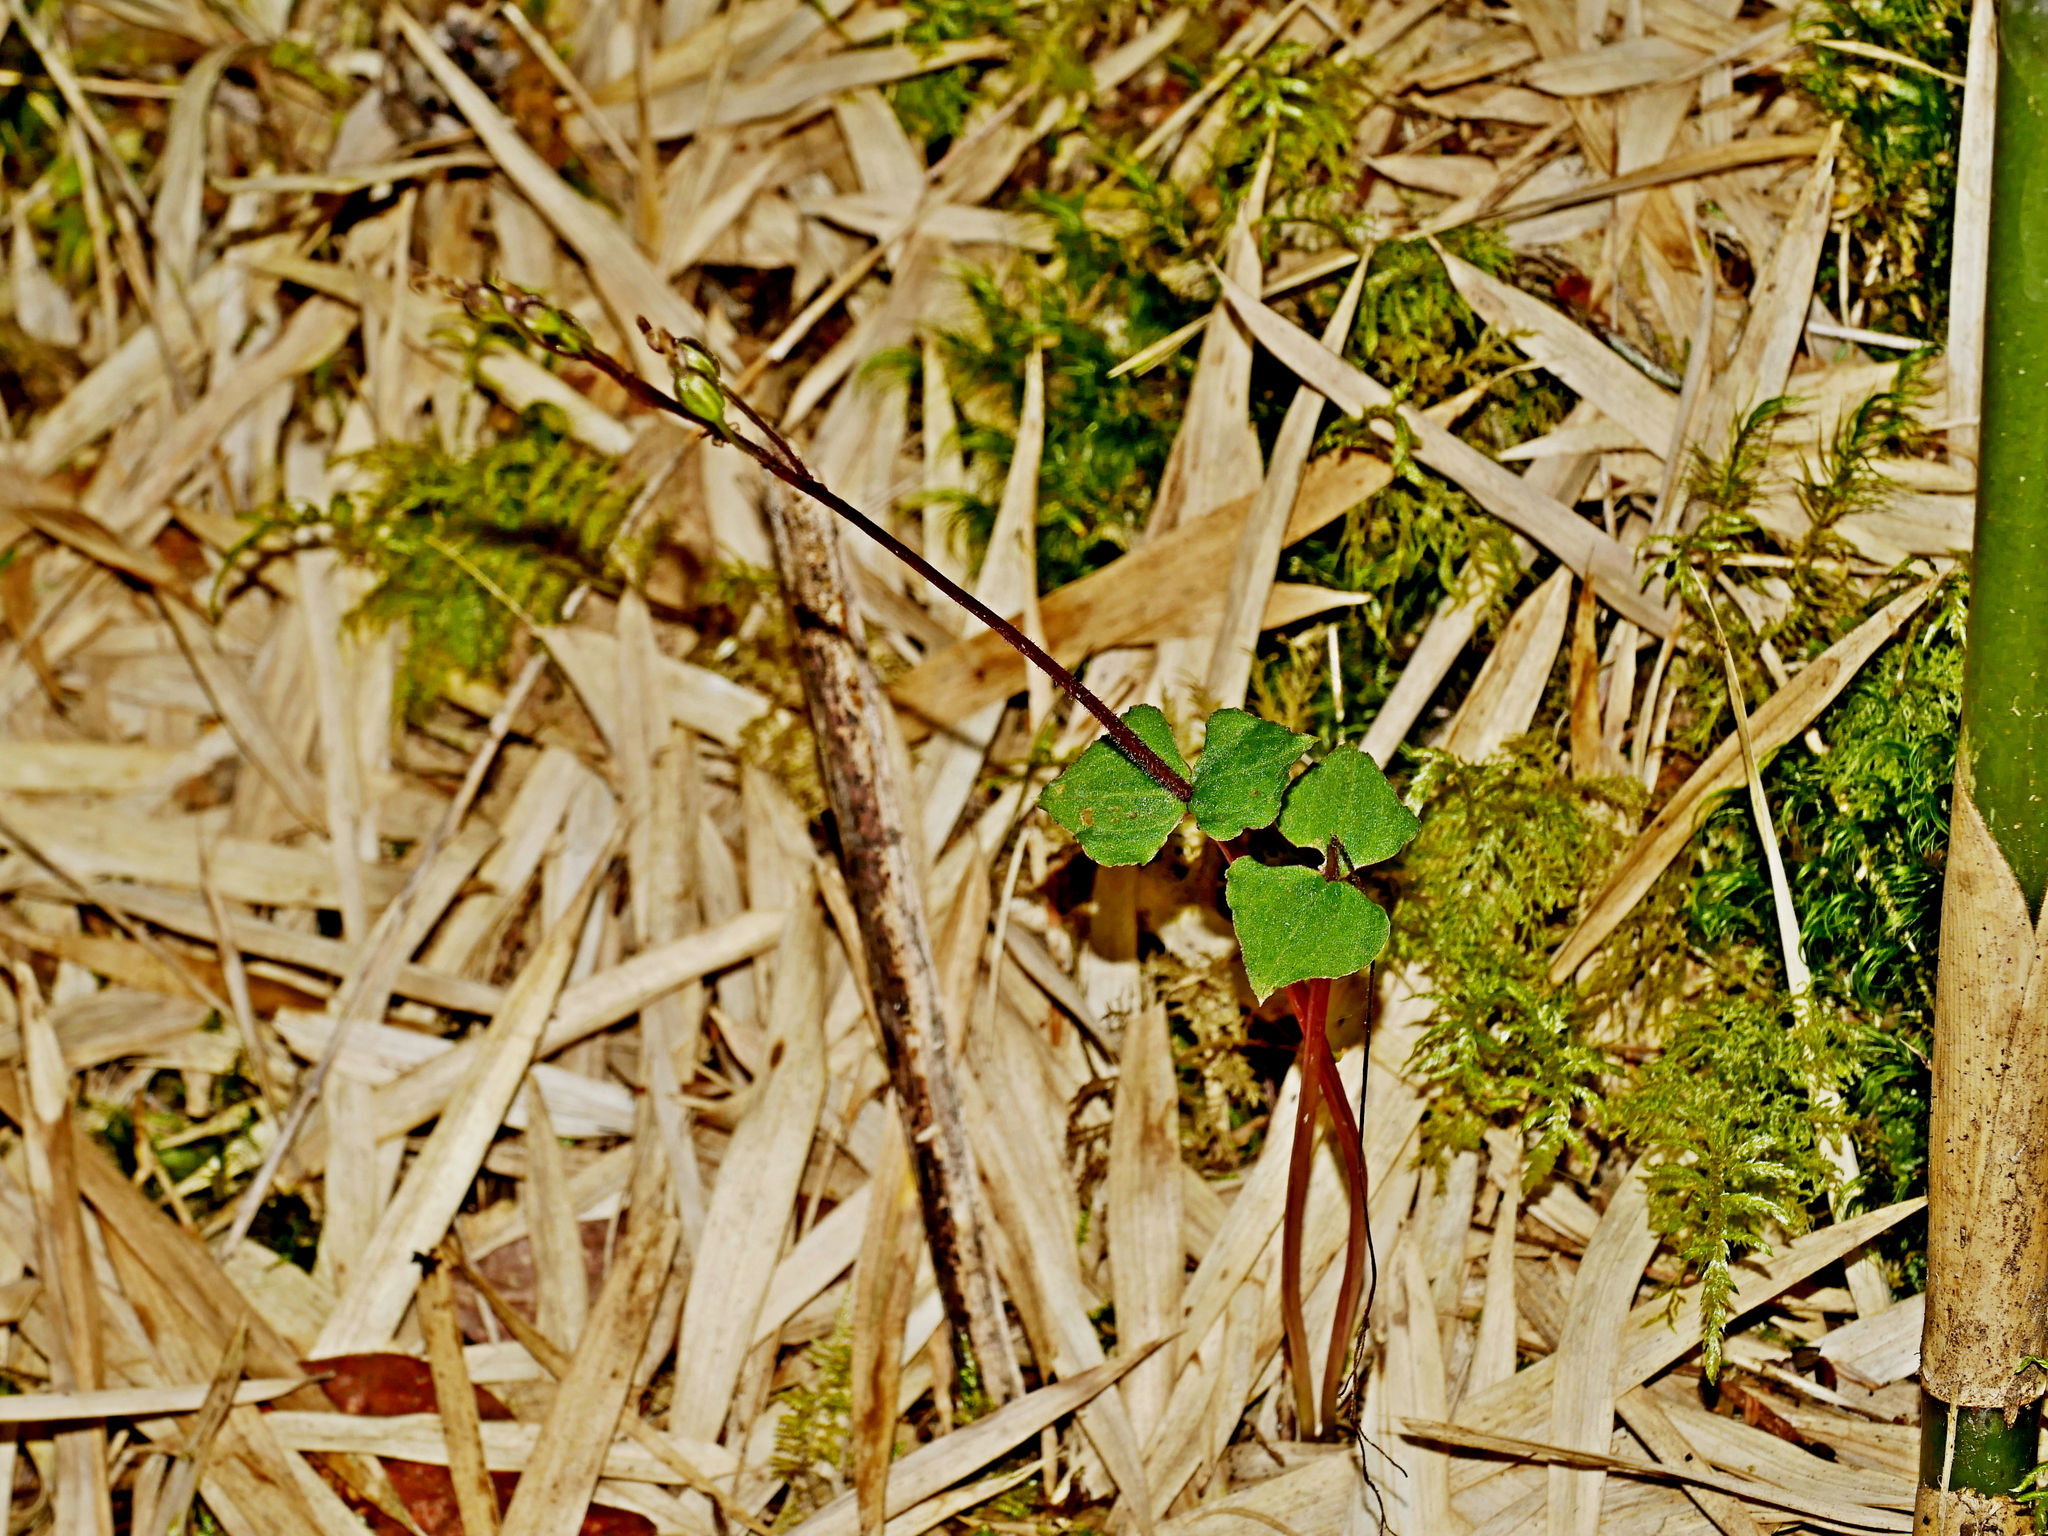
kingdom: Plantae
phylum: Tracheophyta
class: Liliopsida
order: Asparagales
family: Orchidaceae
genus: Neottia
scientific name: Neottia atayalica
